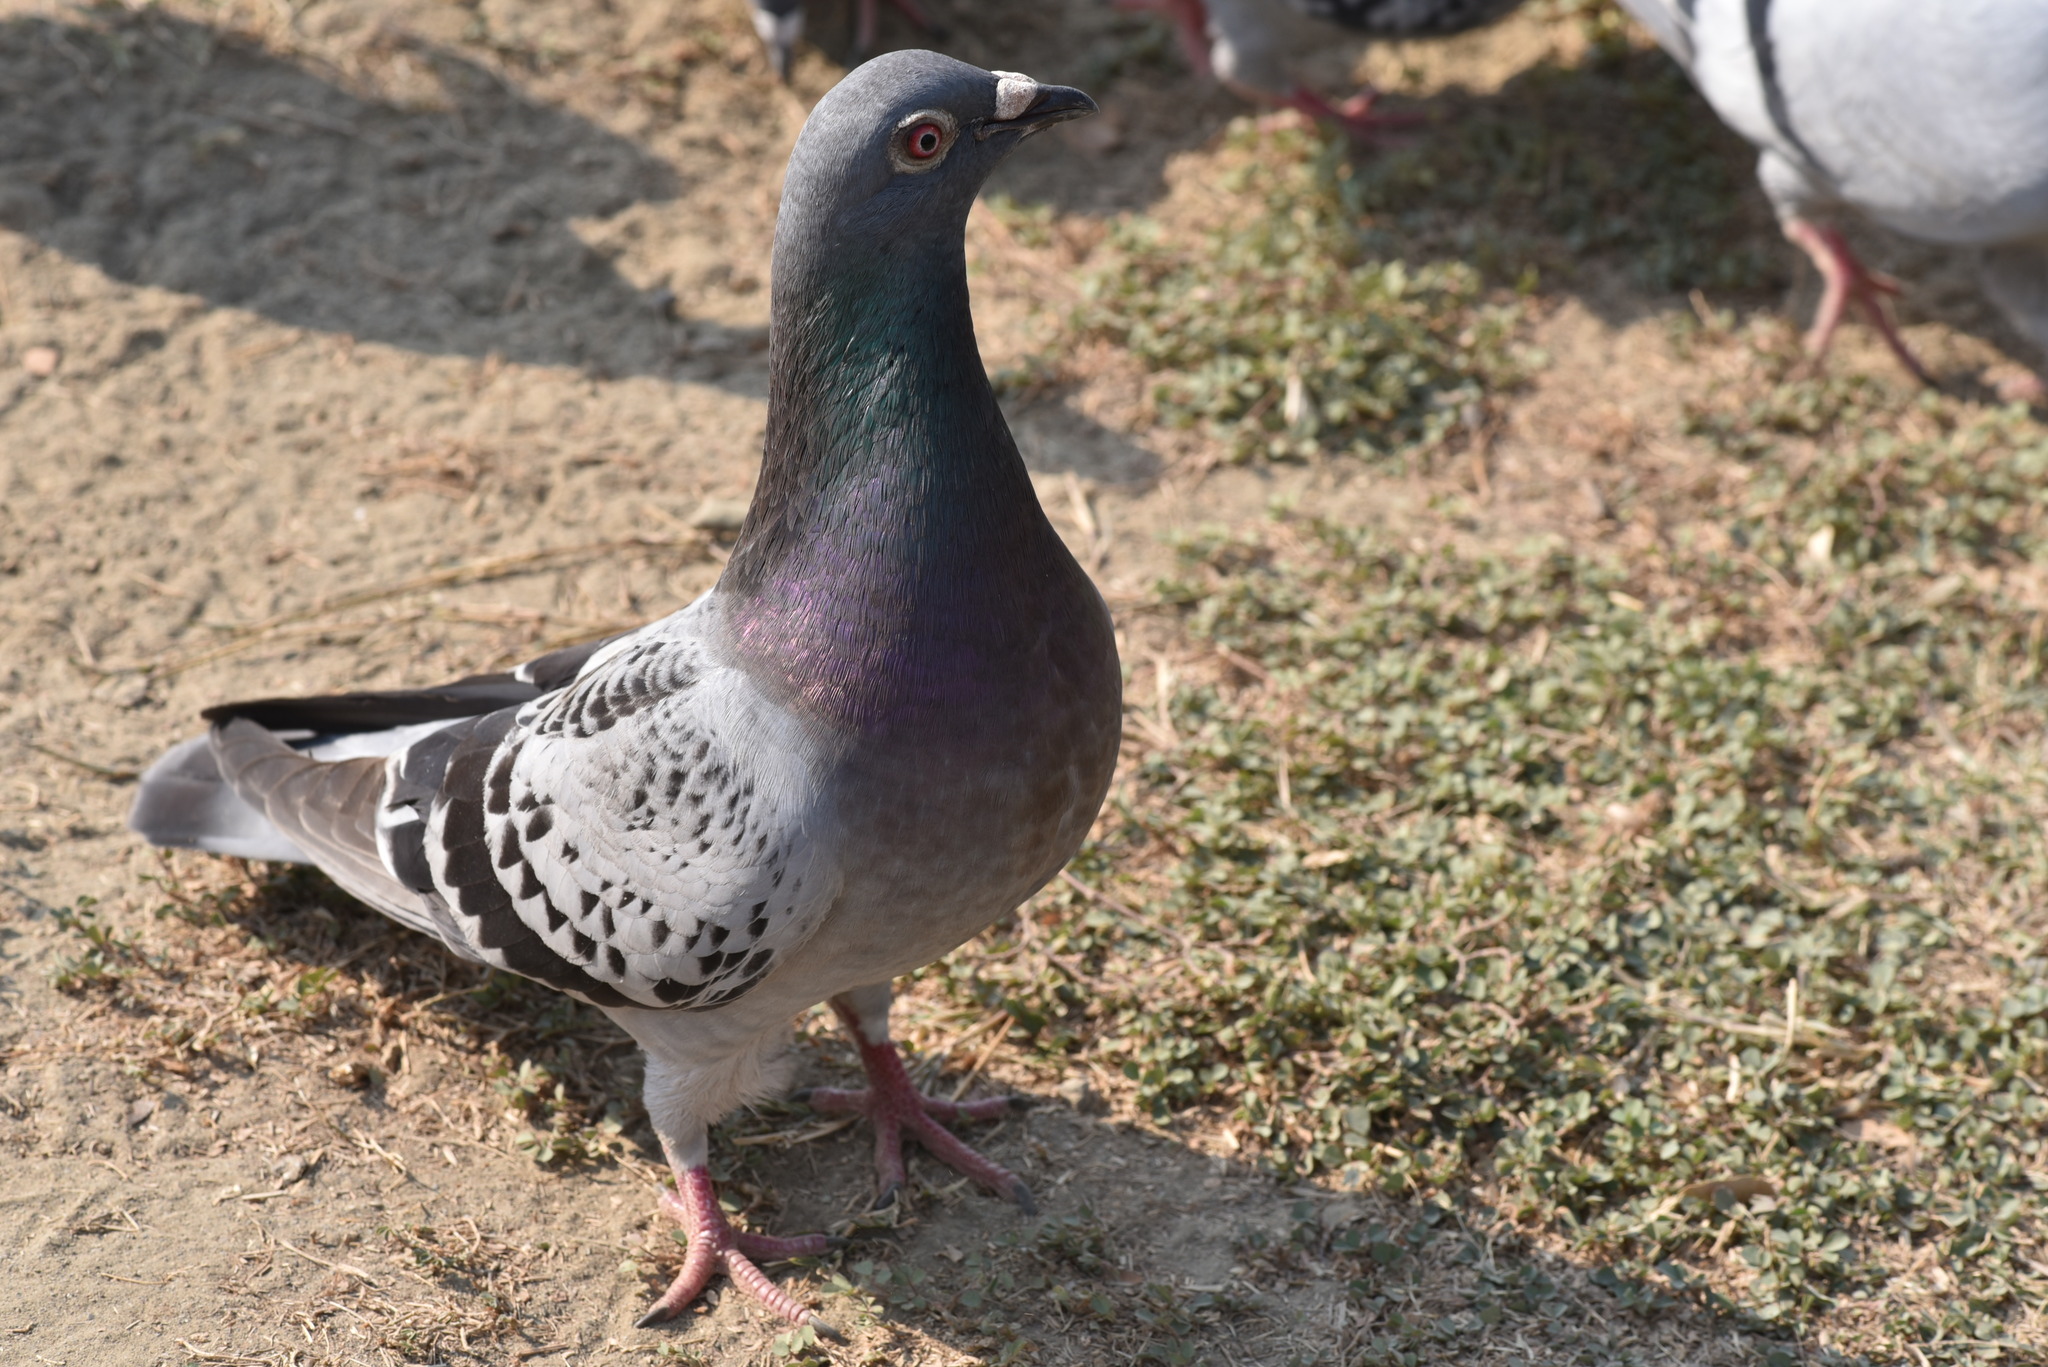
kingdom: Animalia
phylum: Chordata
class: Aves
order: Columbiformes
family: Columbidae
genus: Columba
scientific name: Columba livia
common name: Rock pigeon
